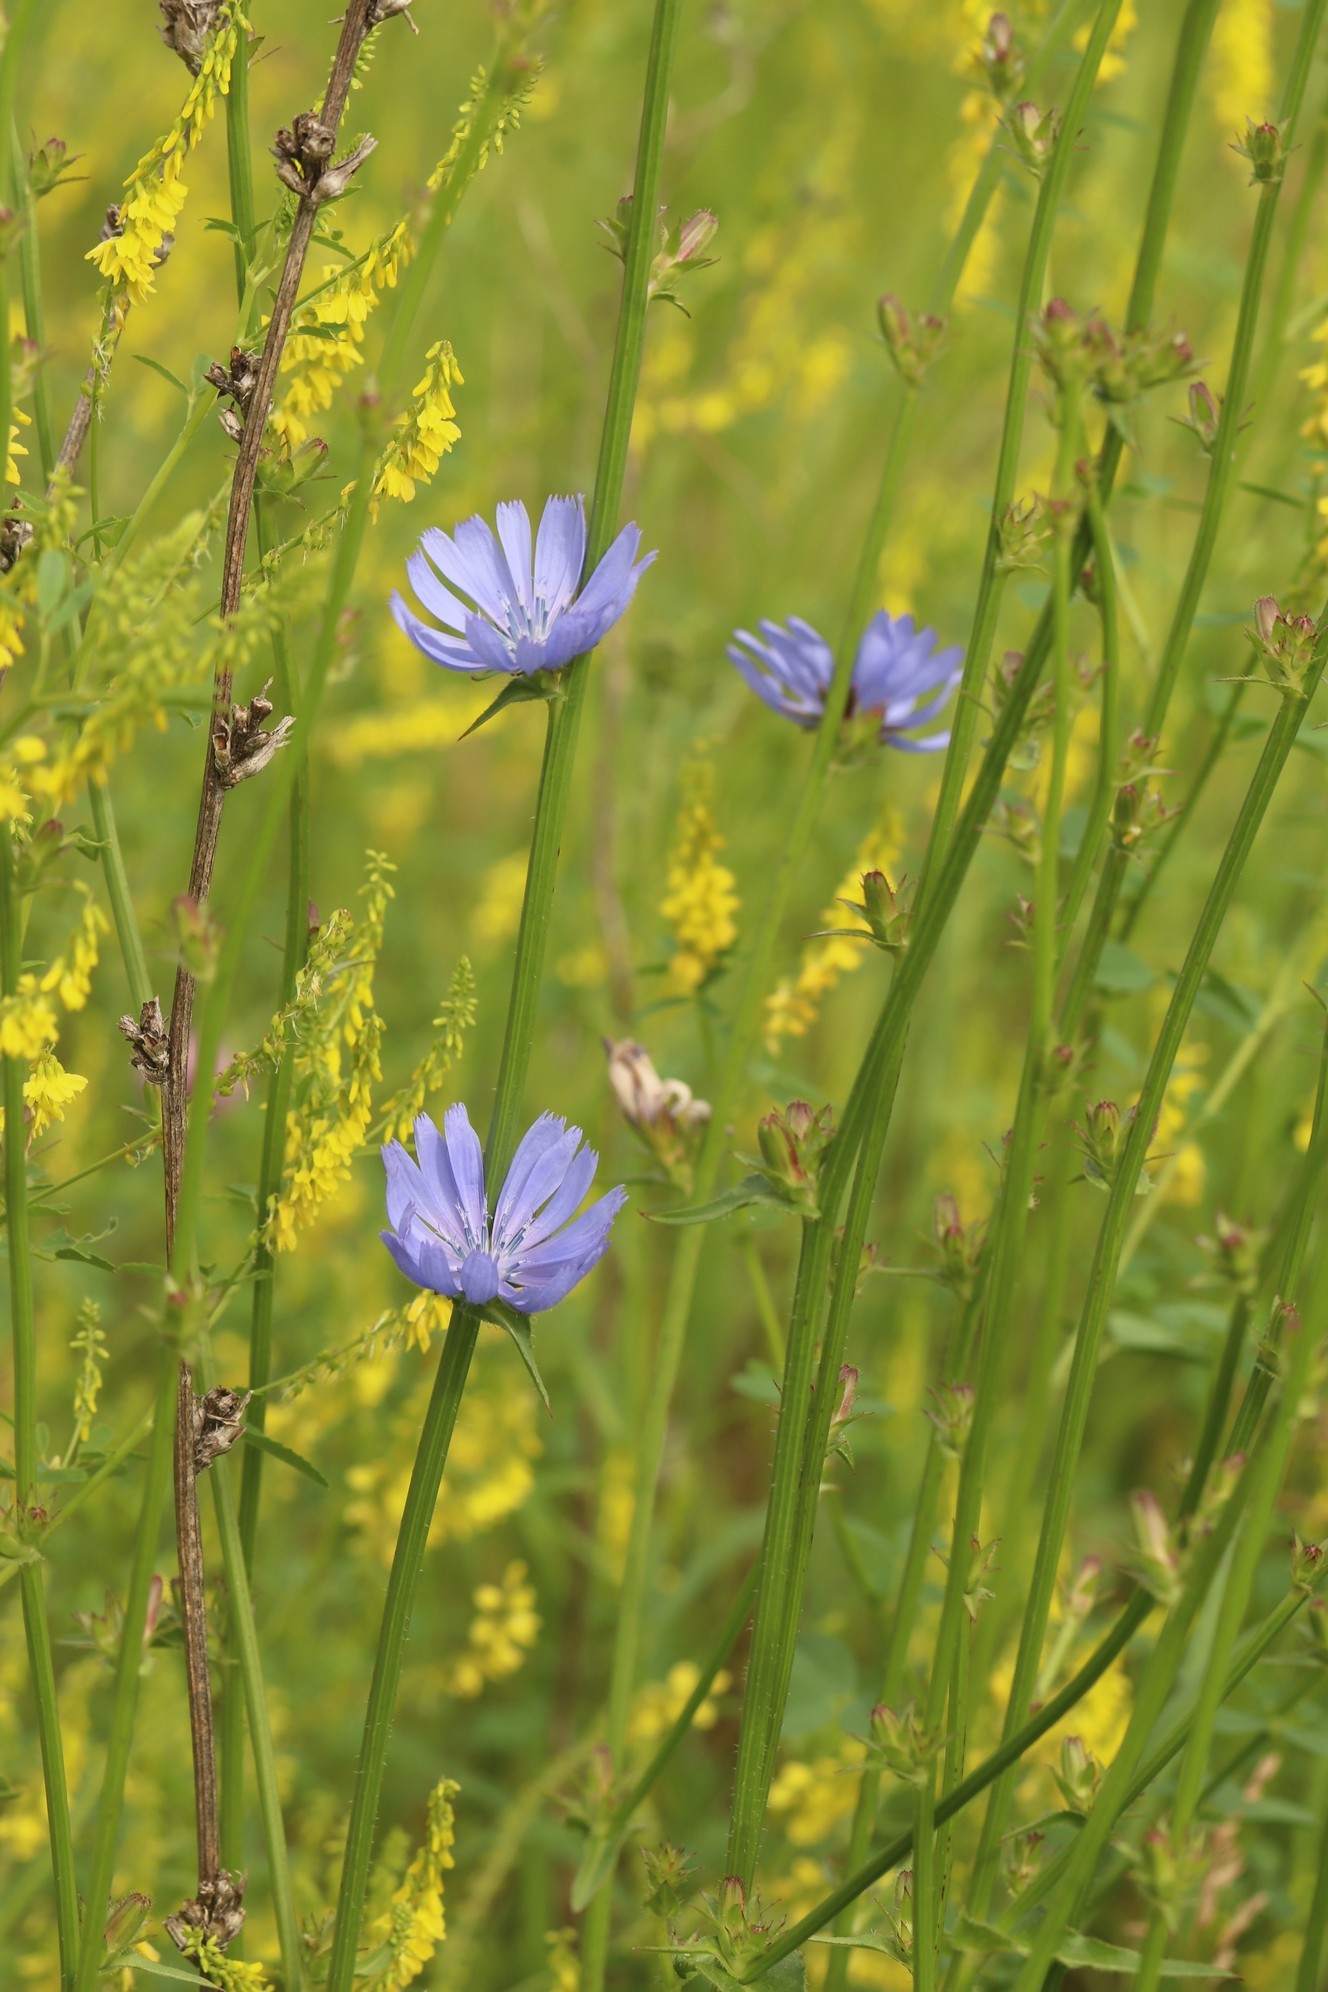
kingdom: Plantae
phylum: Tracheophyta
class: Magnoliopsida
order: Asterales
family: Asteraceae
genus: Cichorium
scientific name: Cichorium intybus
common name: Chicory
